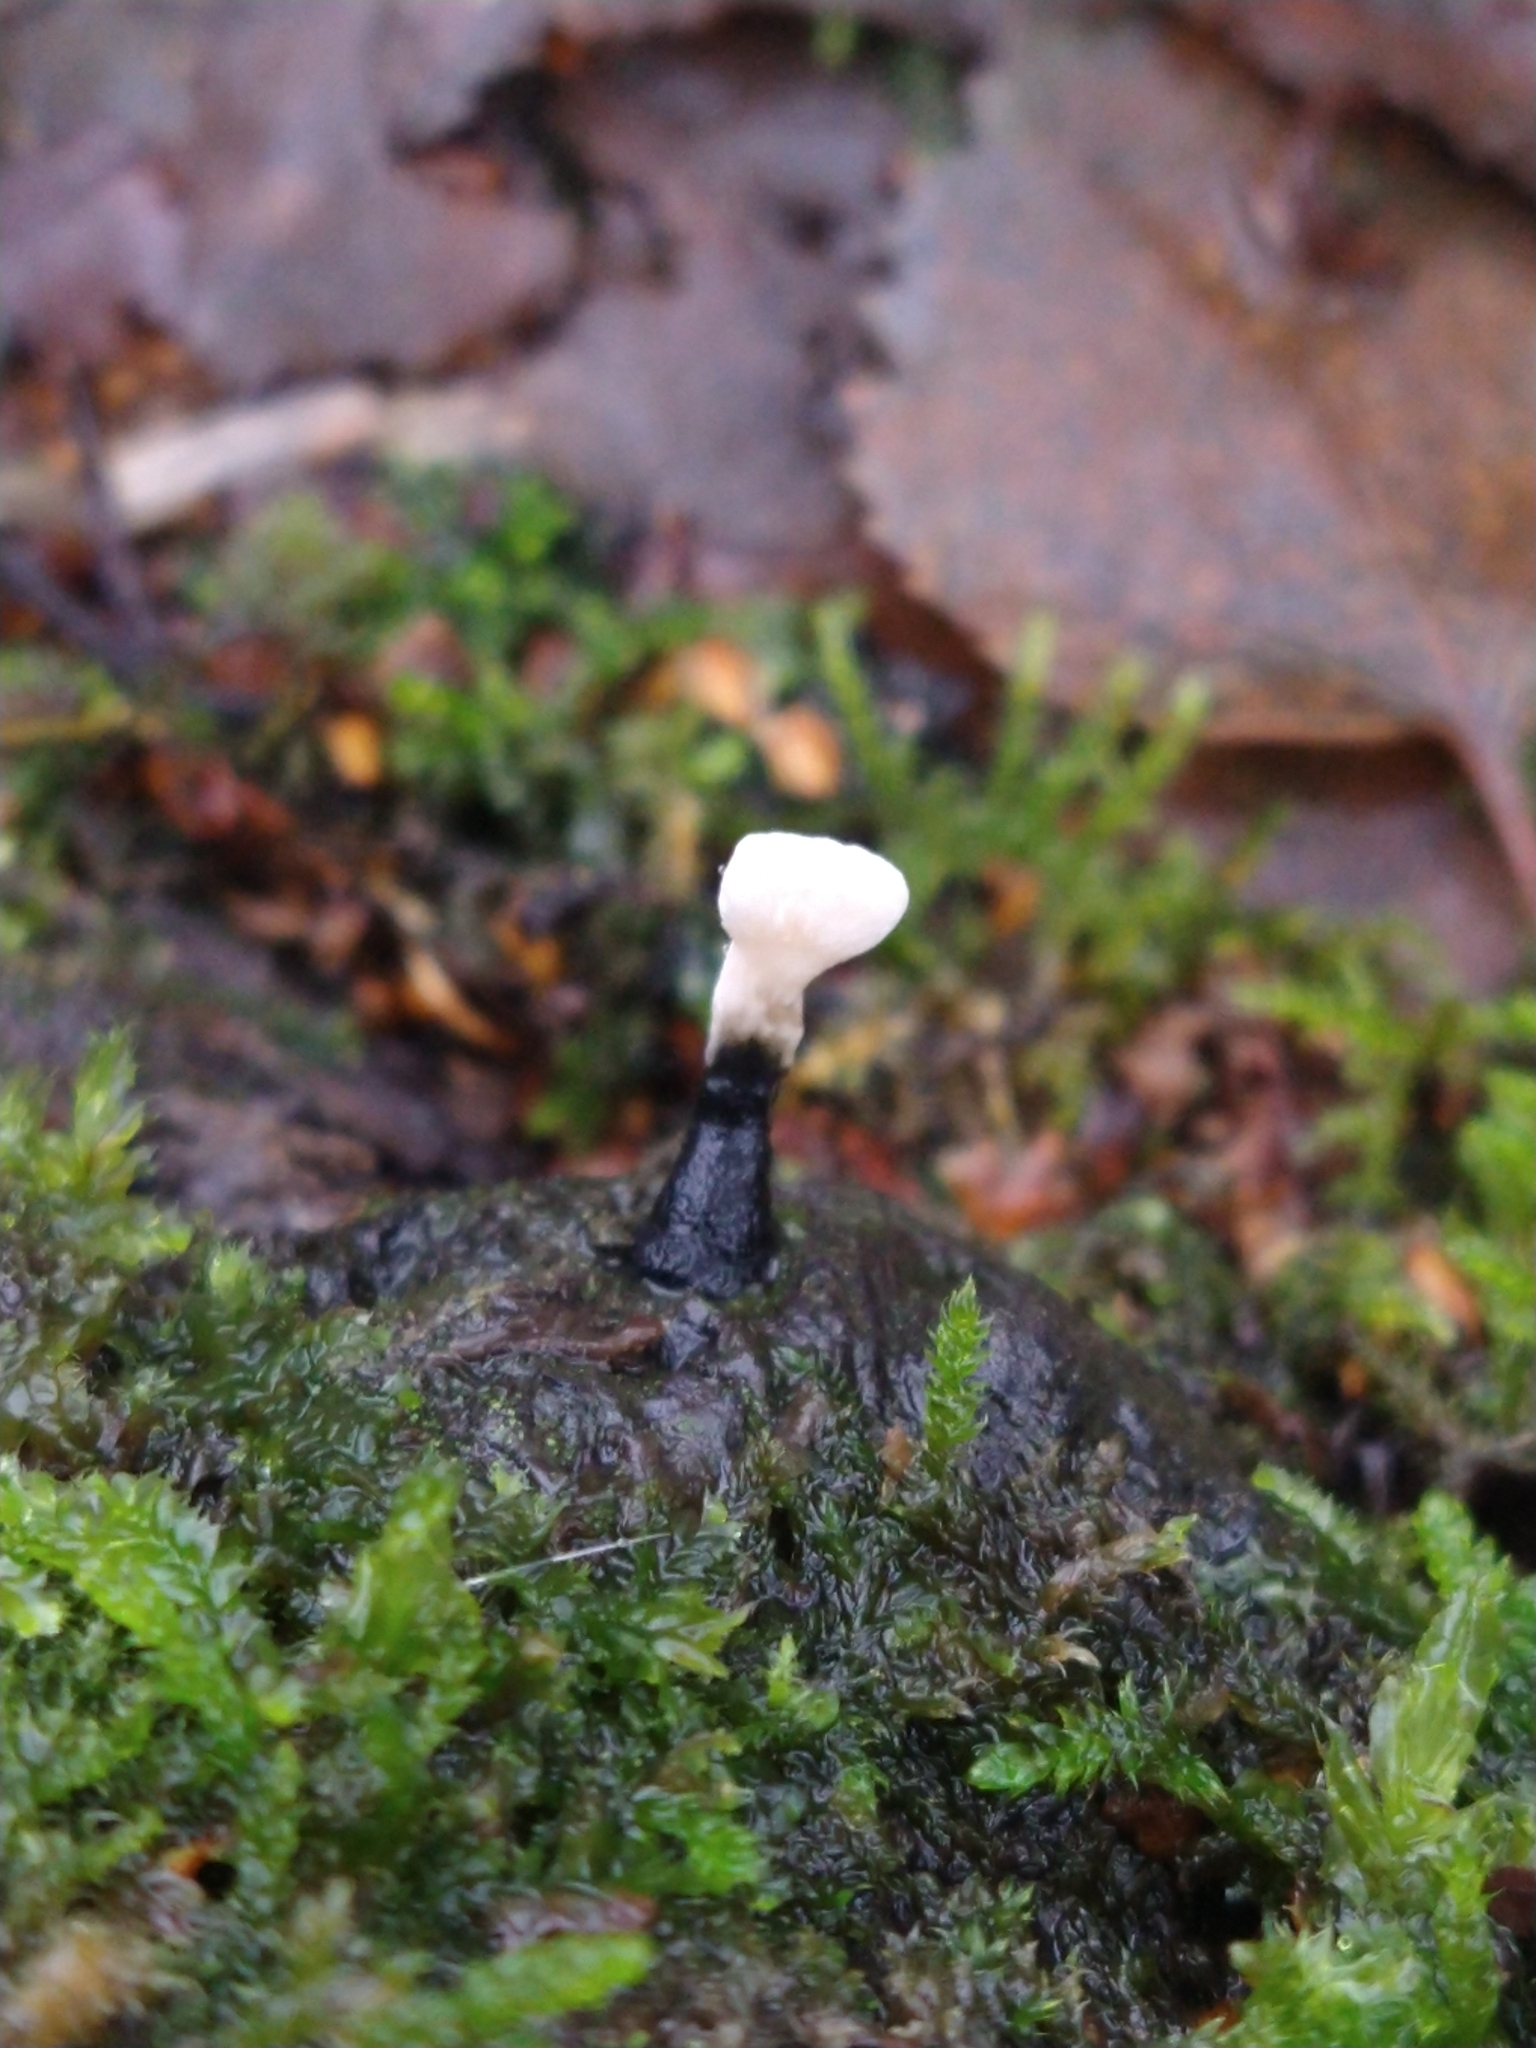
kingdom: Fungi
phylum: Ascomycota
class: Sordariomycetes
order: Xylariales
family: Xylariaceae
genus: Xylaria
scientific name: Xylaria hypoxylon
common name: Candle-snuff fungus
